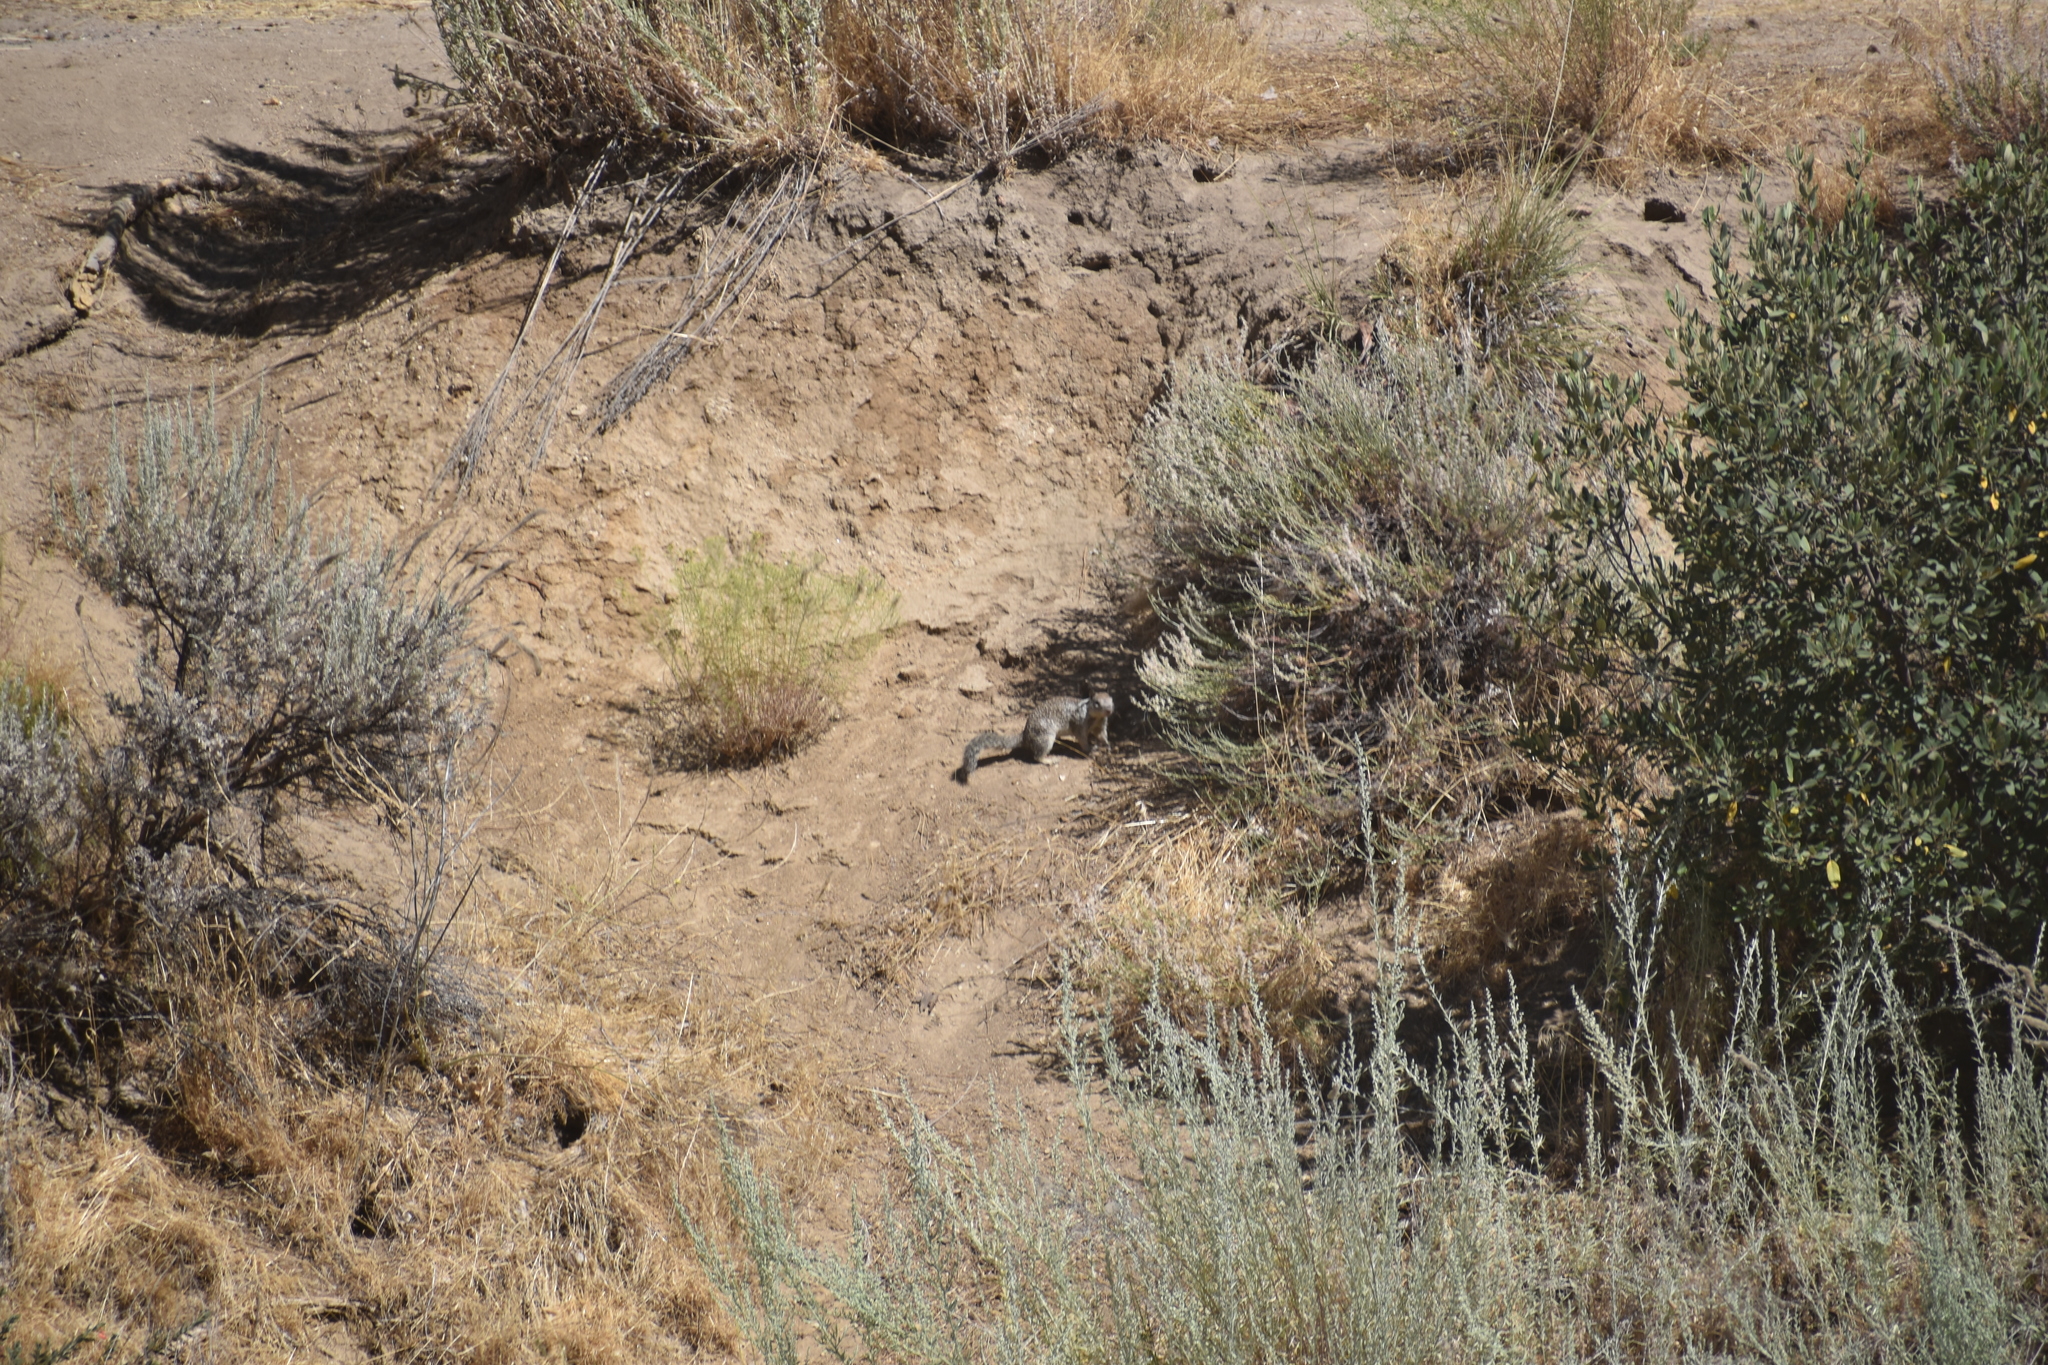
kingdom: Animalia
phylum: Chordata
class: Mammalia
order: Rodentia
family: Sciuridae
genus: Otospermophilus
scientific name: Otospermophilus beecheyi
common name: California ground squirrel
